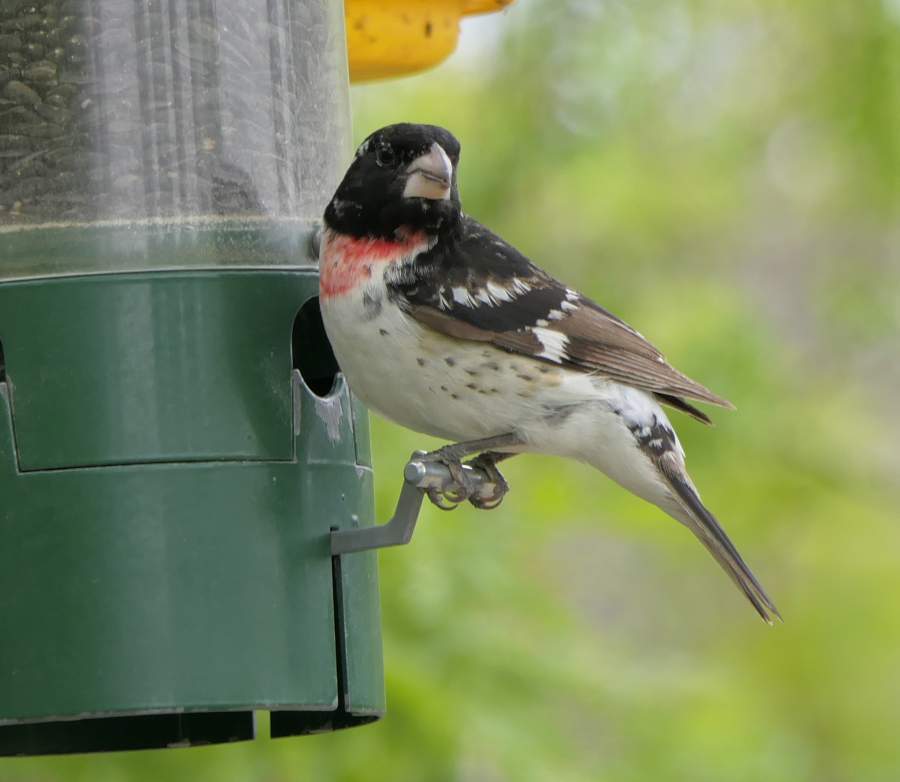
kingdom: Animalia
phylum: Chordata
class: Aves
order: Passeriformes
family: Cardinalidae
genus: Pheucticus
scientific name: Pheucticus ludovicianus
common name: Rose-breasted grosbeak
